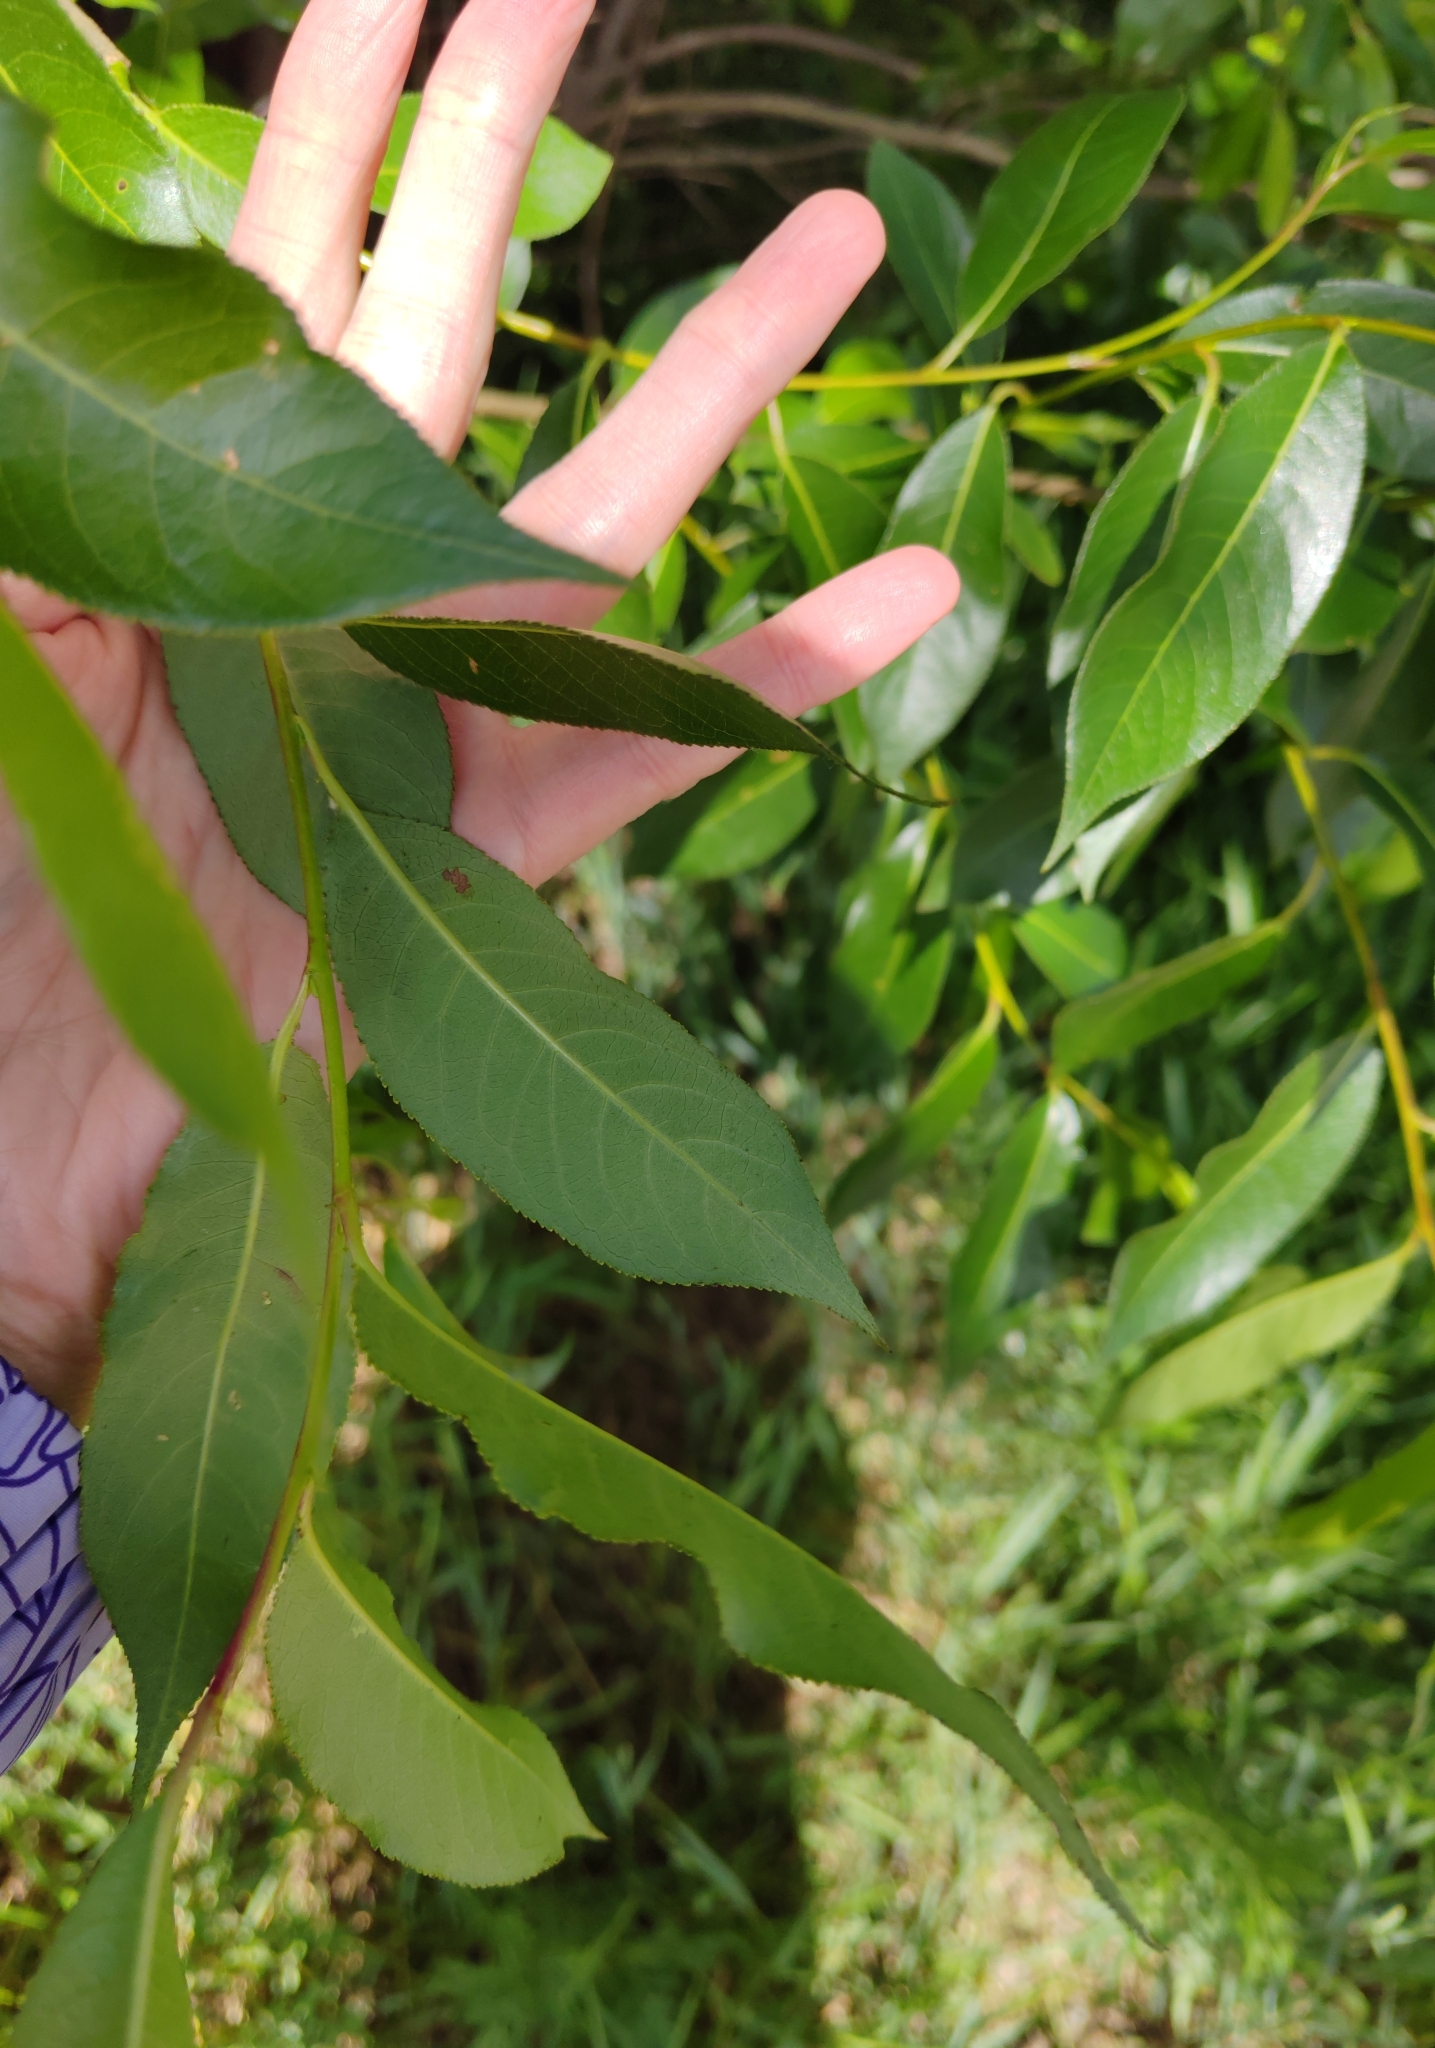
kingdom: Plantae
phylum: Tracheophyta
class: Magnoliopsida
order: Malpighiales
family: Salicaceae
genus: Salix
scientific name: Salix pentandra
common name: Bay willow
